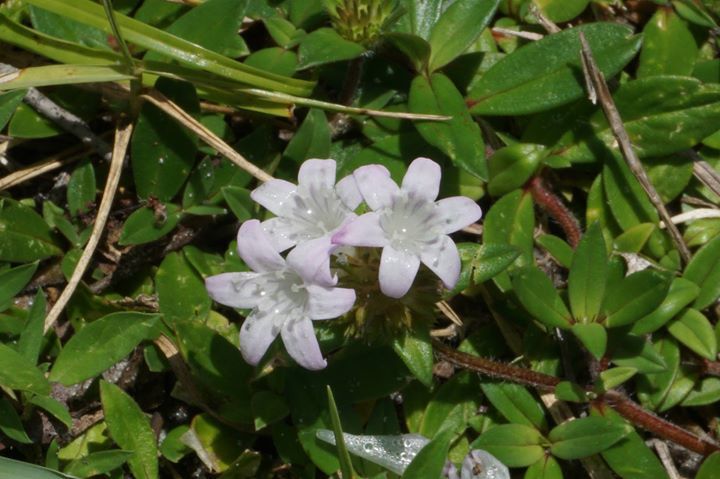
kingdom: Plantae
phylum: Tracheophyta
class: Magnoliopsida
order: Gentianales
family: Rubiaceae
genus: Richardia
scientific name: Richardia grandiflora
